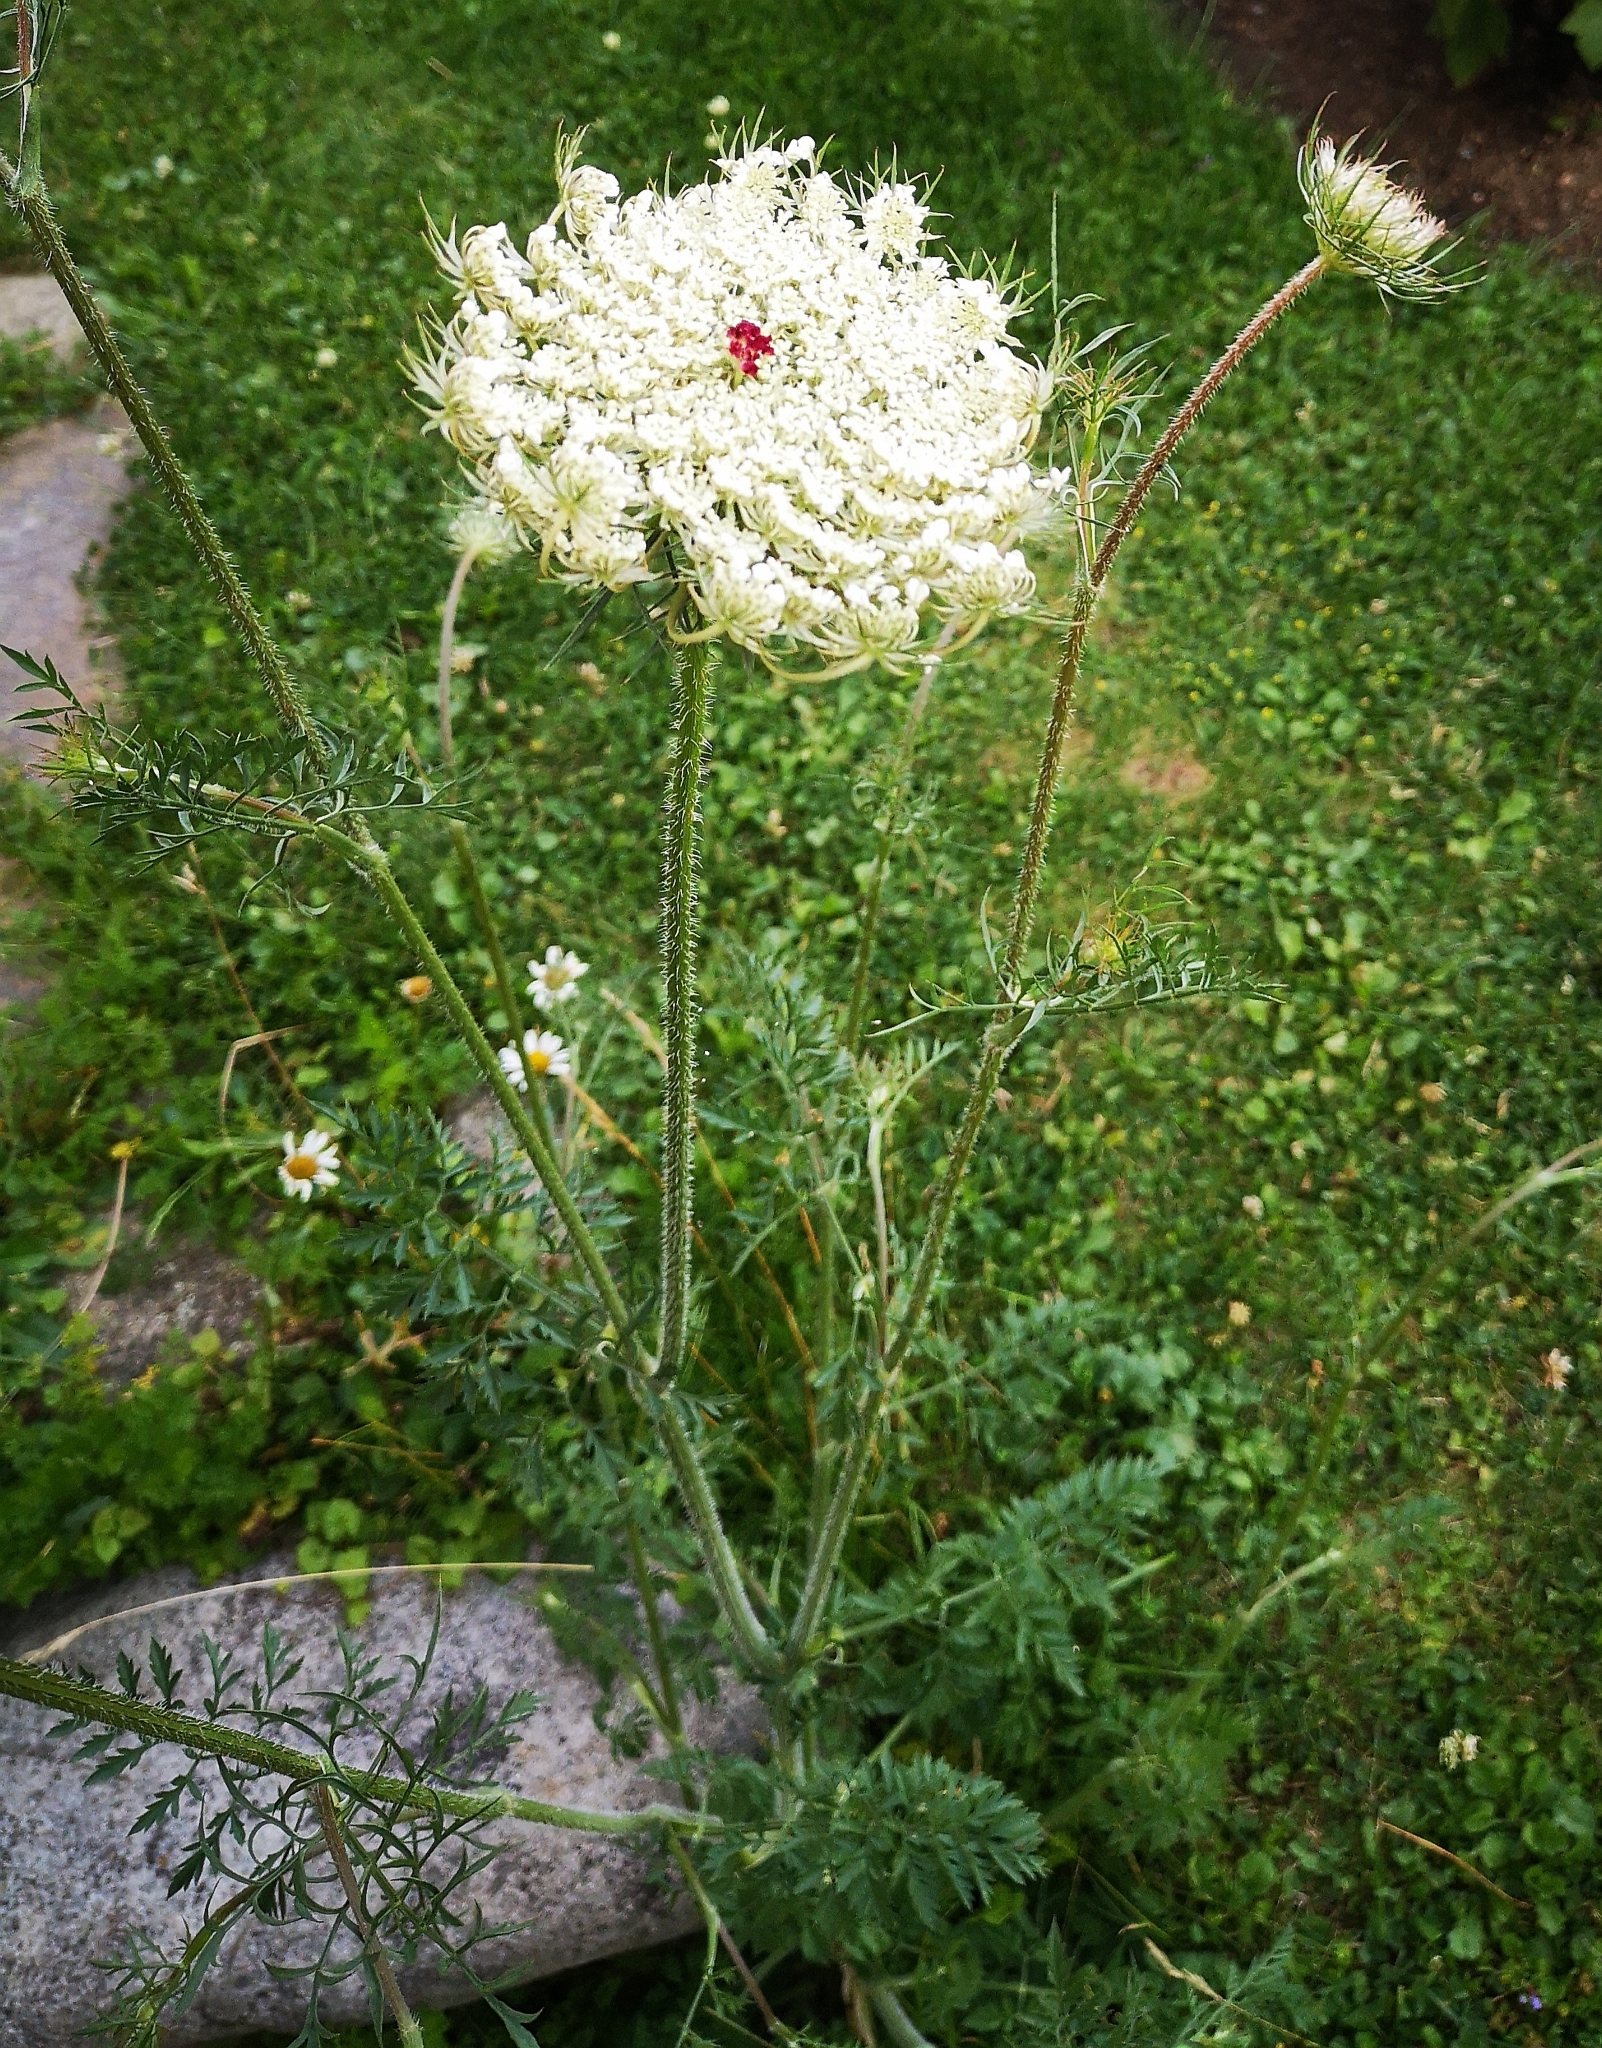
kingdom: Plantae
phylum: Tracheophyta
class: Magnoliopsida
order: Apiales
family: Apiaceae
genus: Daucus
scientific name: Daucus carota
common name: Wild carrot
